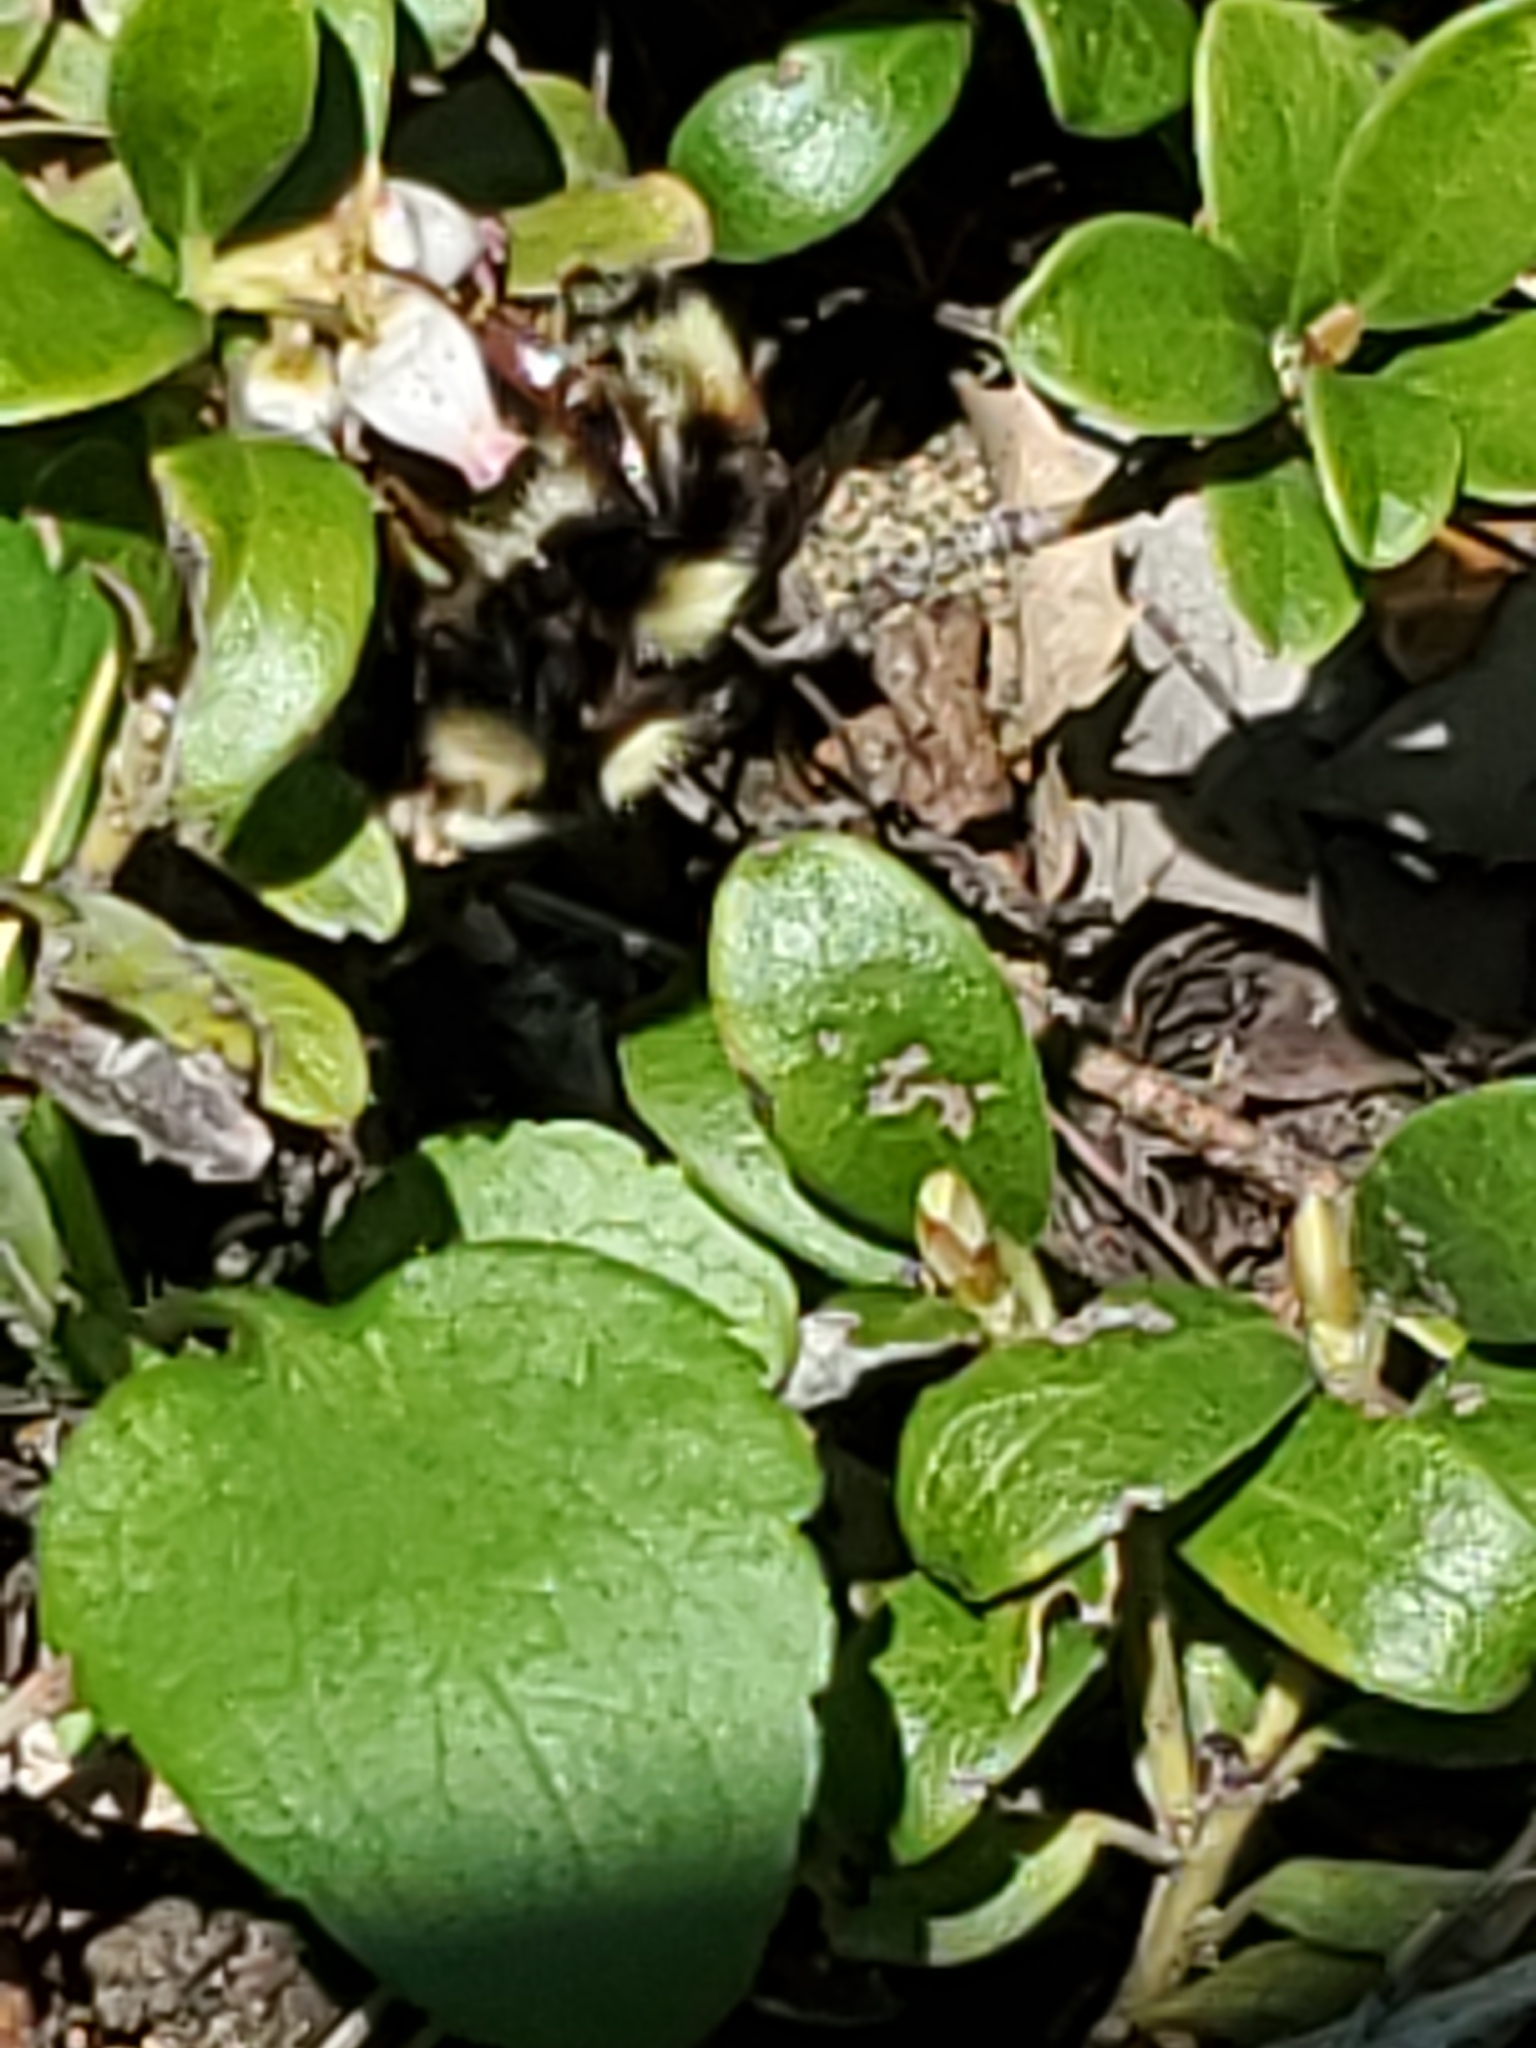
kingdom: Animalia
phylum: Arthropoda
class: Insecta
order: Hymenoptera
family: Apidae
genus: Bombus
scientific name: Bombus vancouverensis
